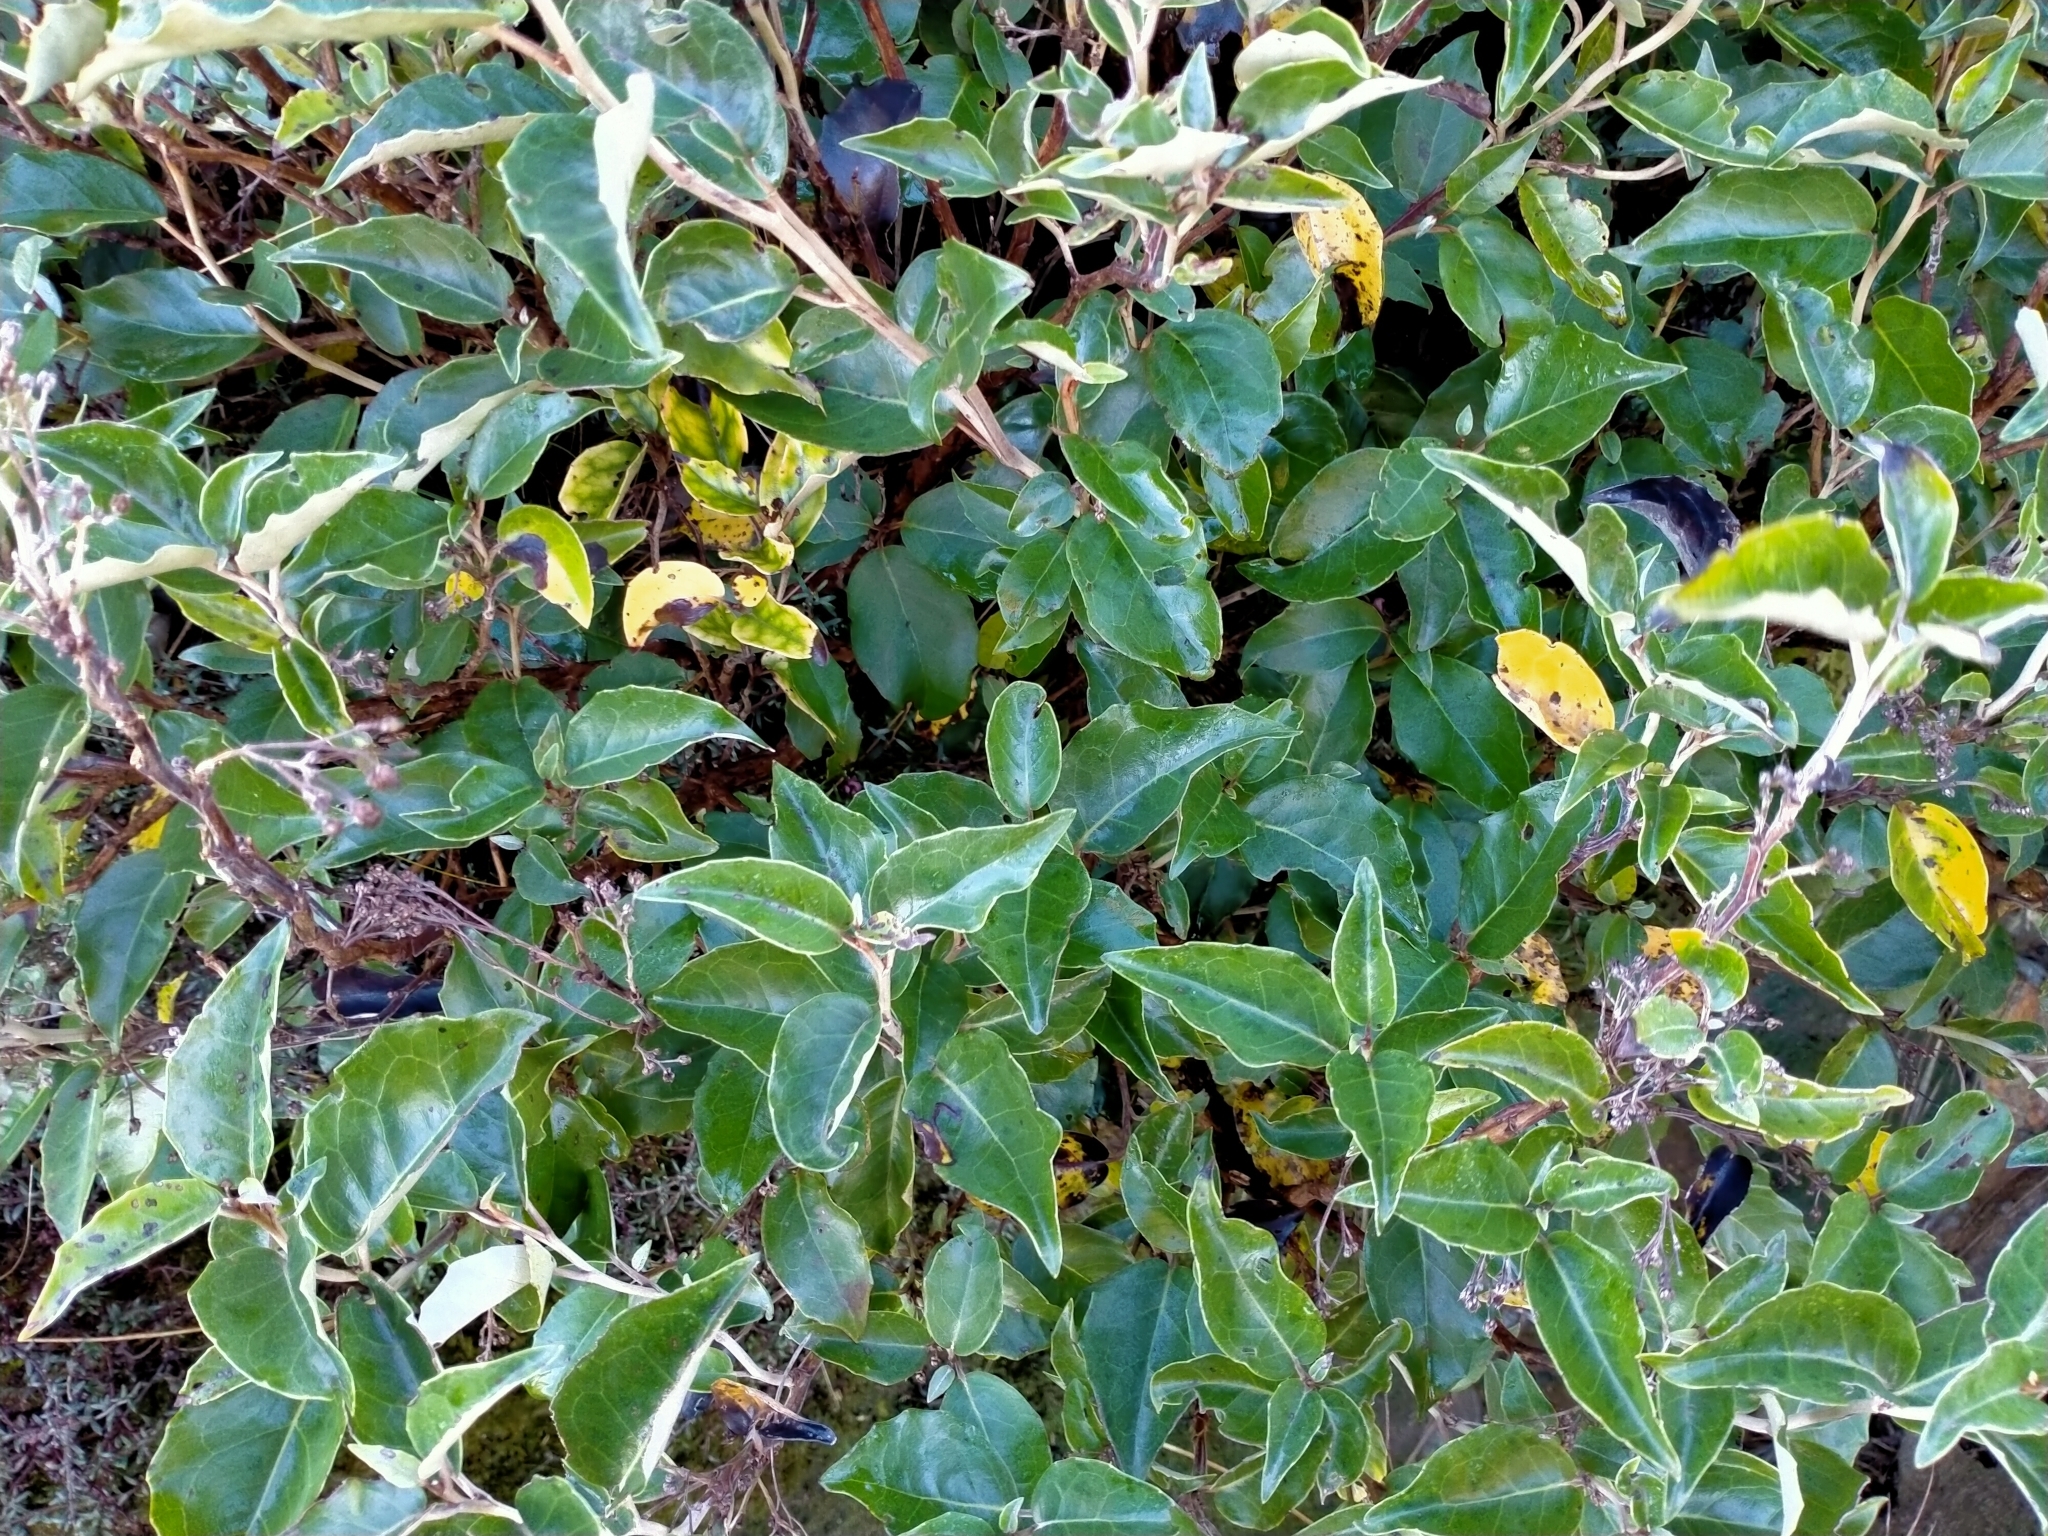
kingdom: Plantae
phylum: Tracheophyta
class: Magnoliopsida
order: Asterales
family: Asteraceae
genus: Olearia
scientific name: Olearia arborescens
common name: Glossy tree daisy
